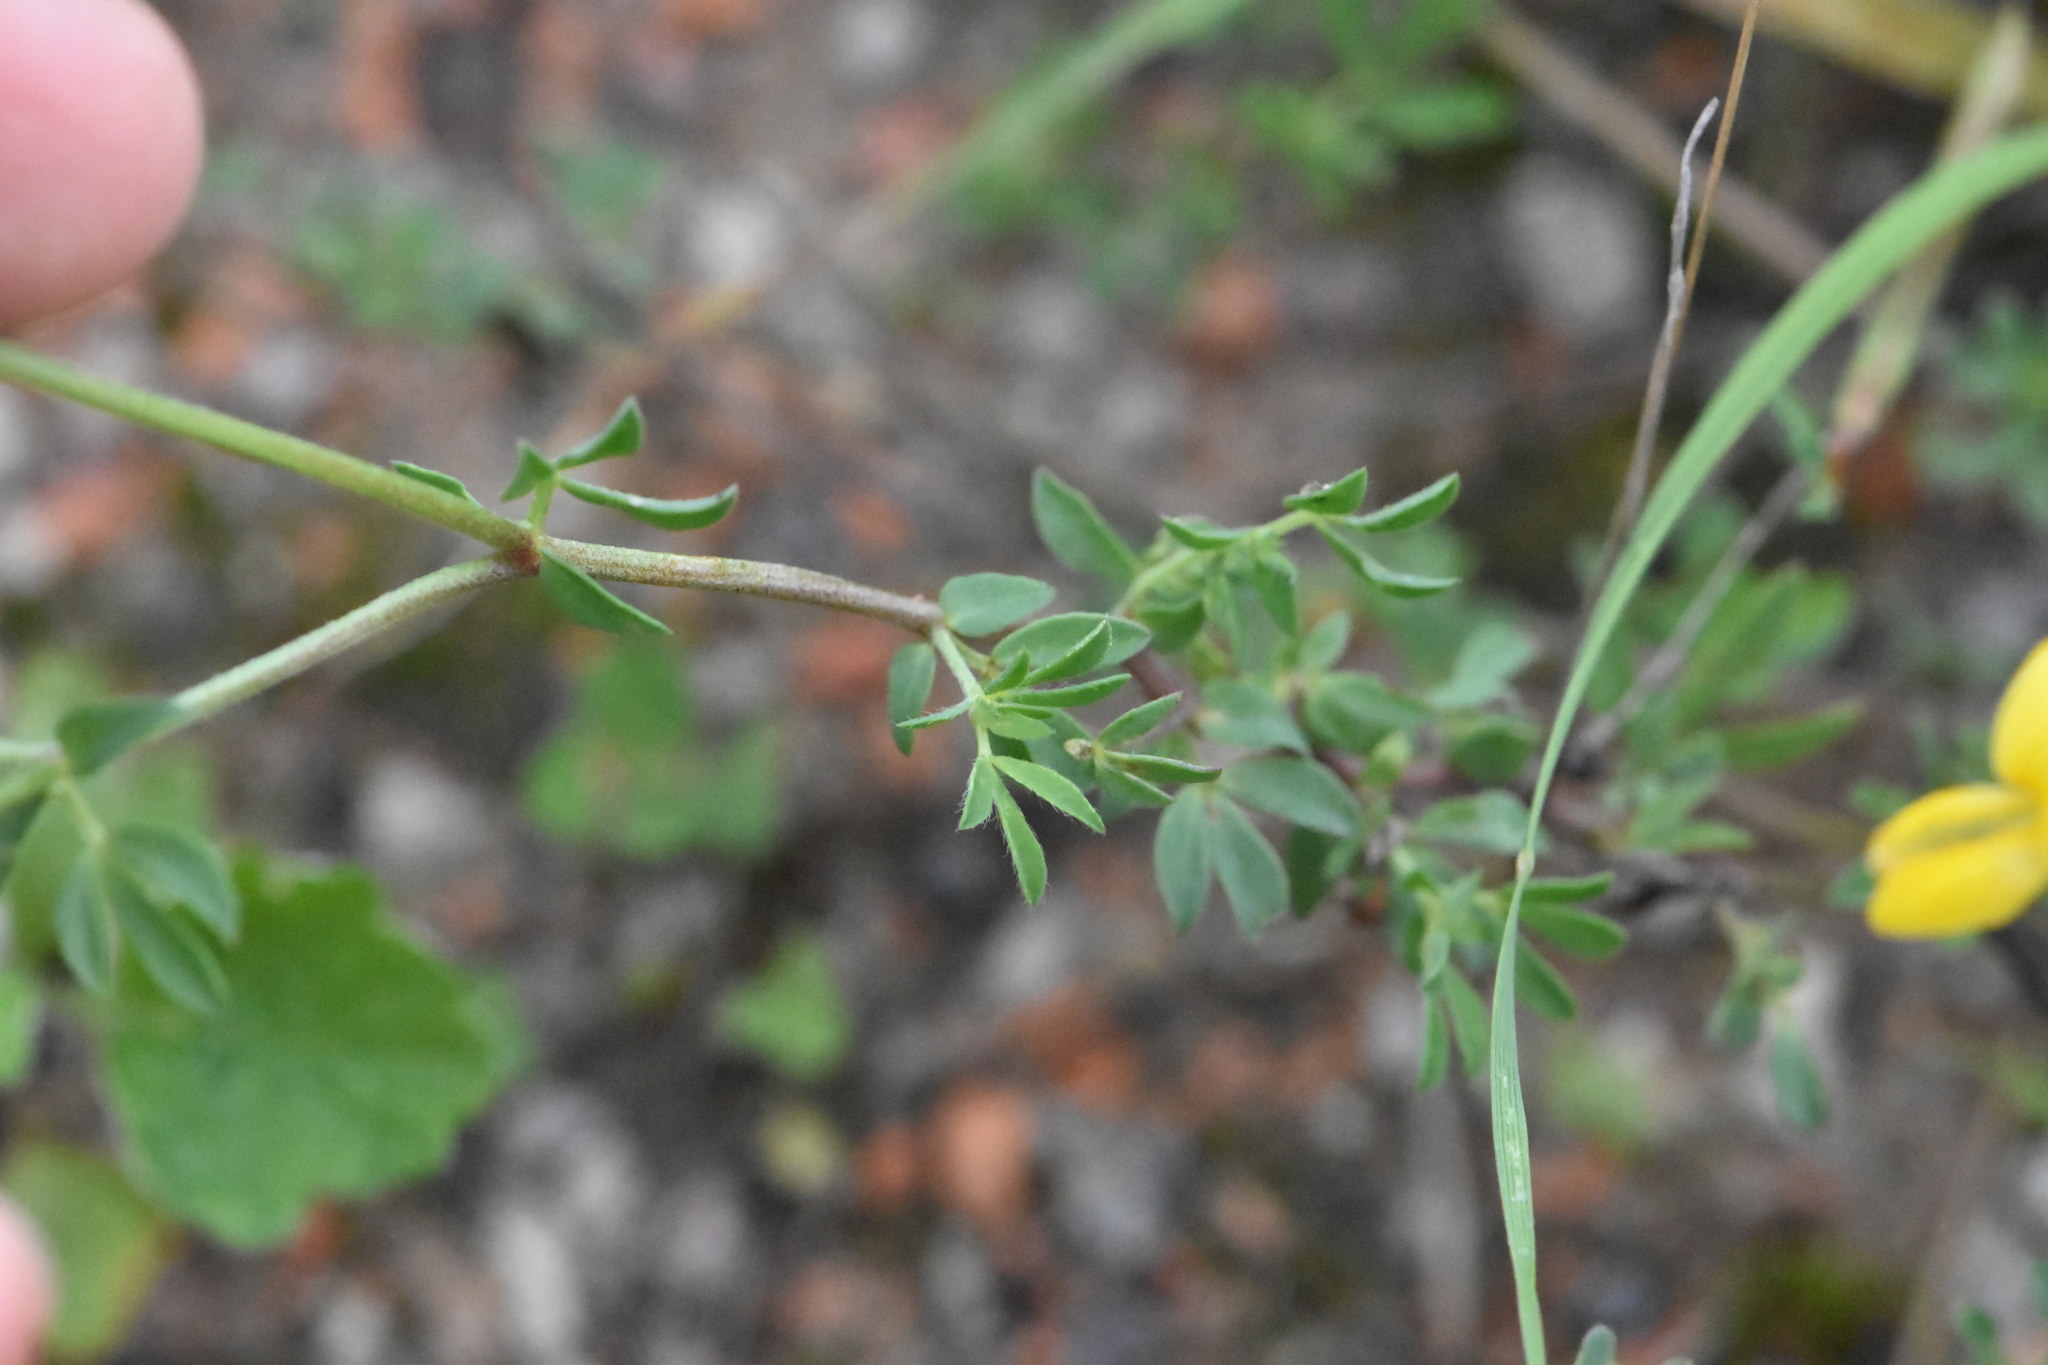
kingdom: Plantae
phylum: Tracheophyta
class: Magnoliopsida
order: Fabales
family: Fabaceae
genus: Lotus
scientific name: Lotus corniculatus
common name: Common bird's-foot-trefoil
